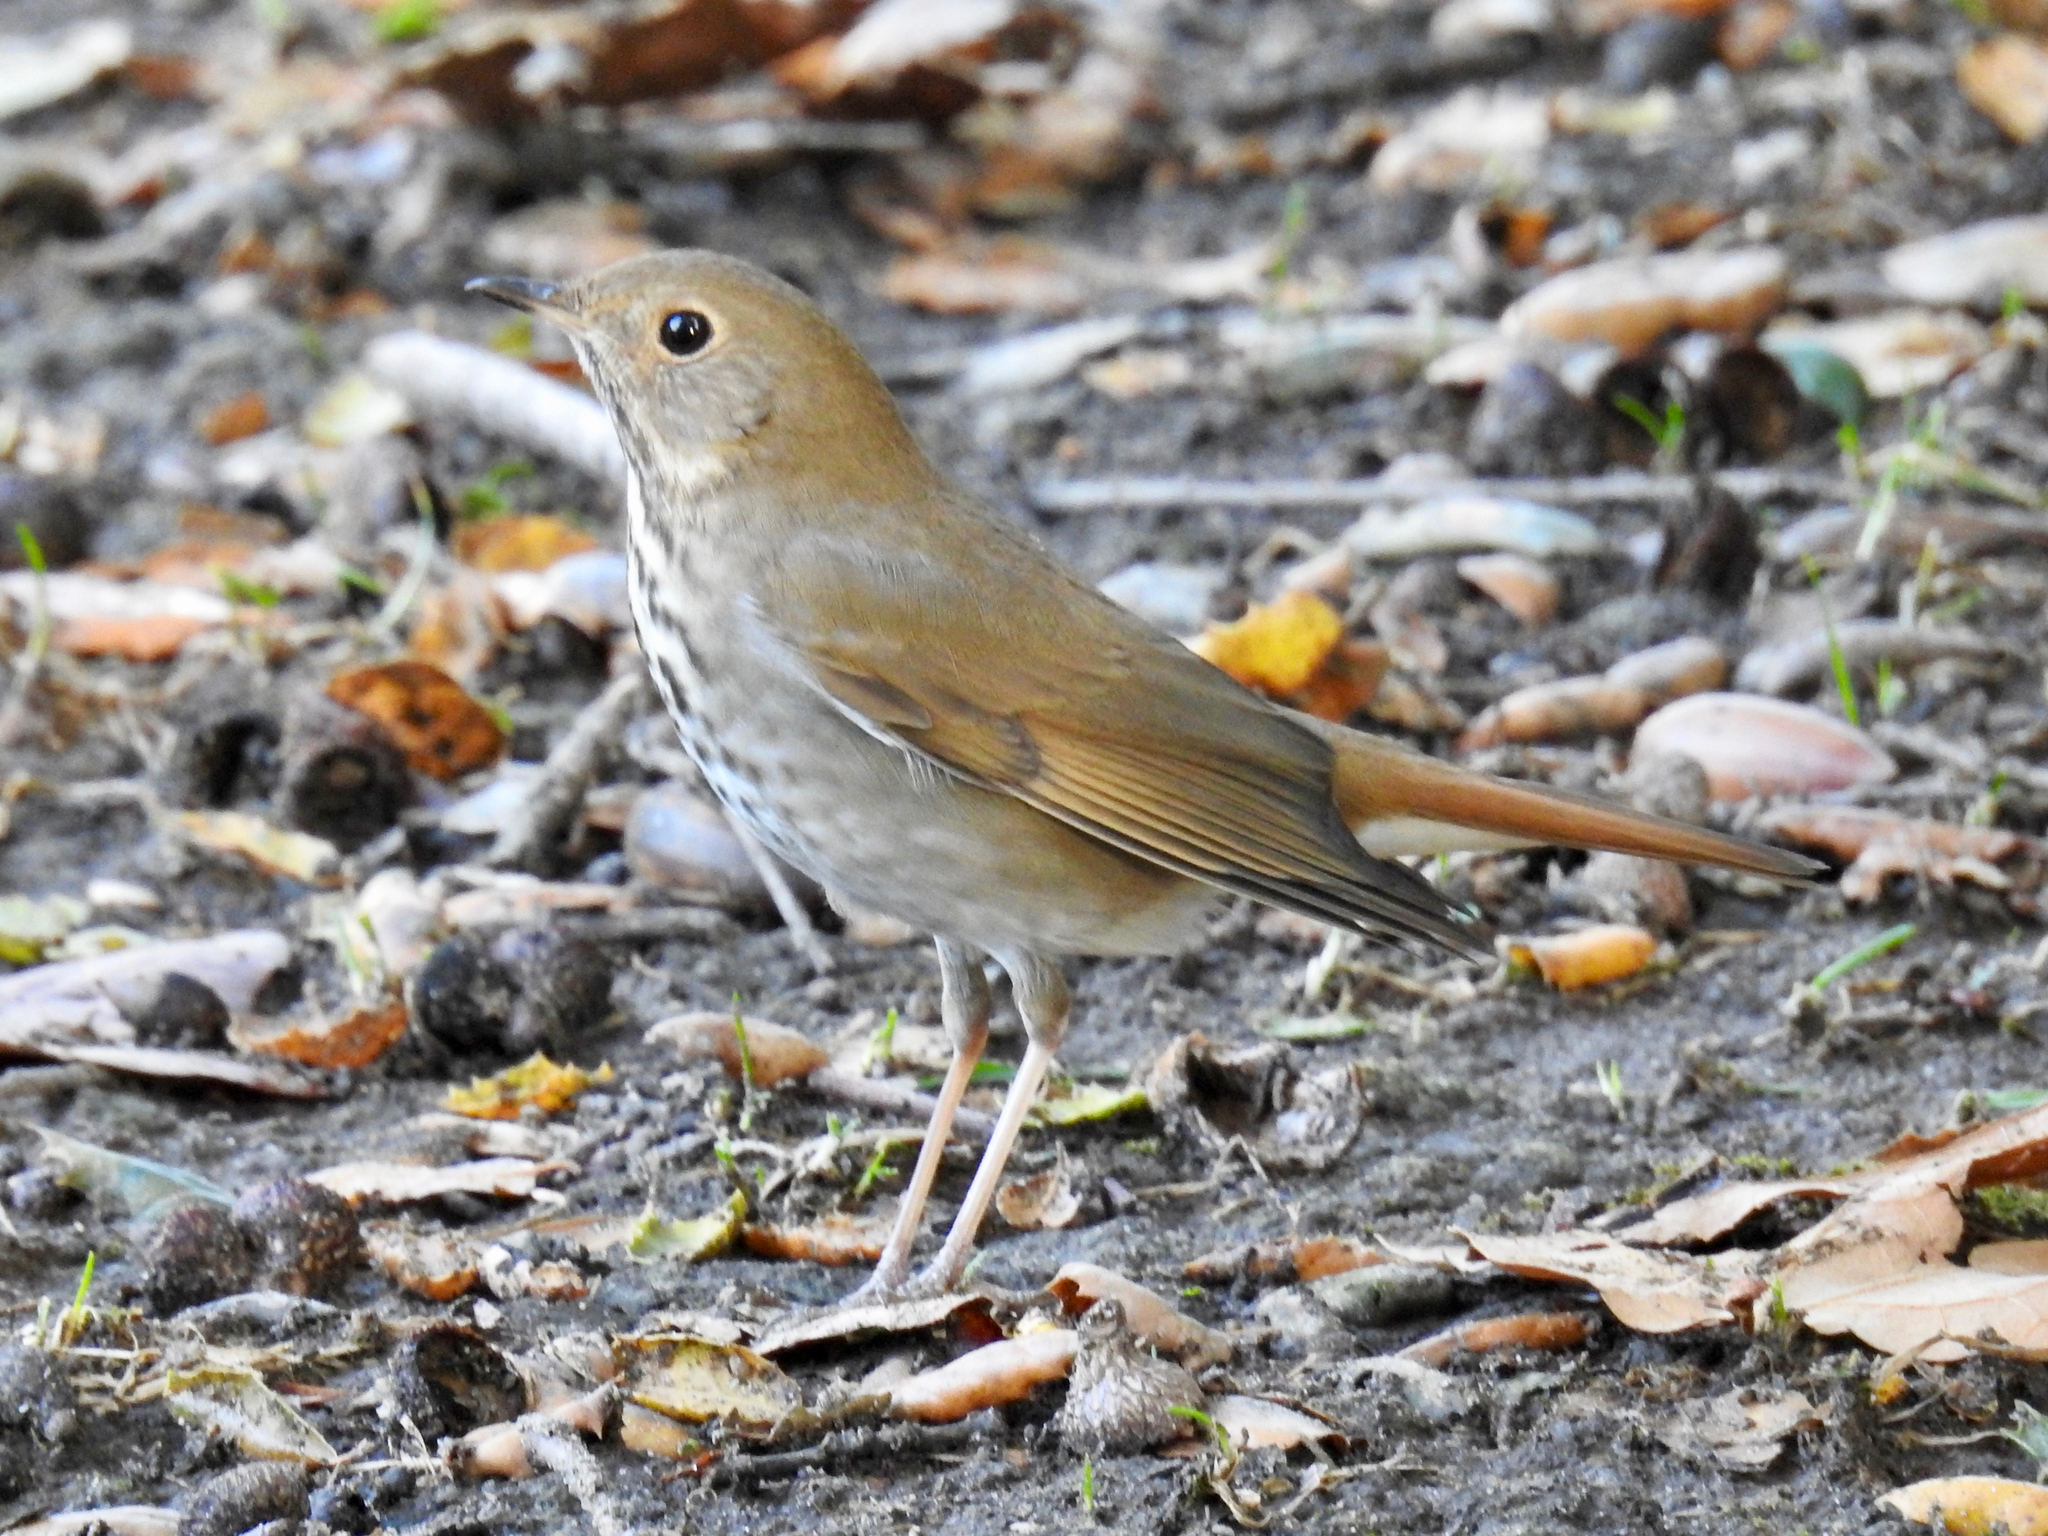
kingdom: Animalia
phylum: Chordata
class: Aves
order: Passeriformes
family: Turdidae
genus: Catharus
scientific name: Catharus guttatus
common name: Hermit thrush
